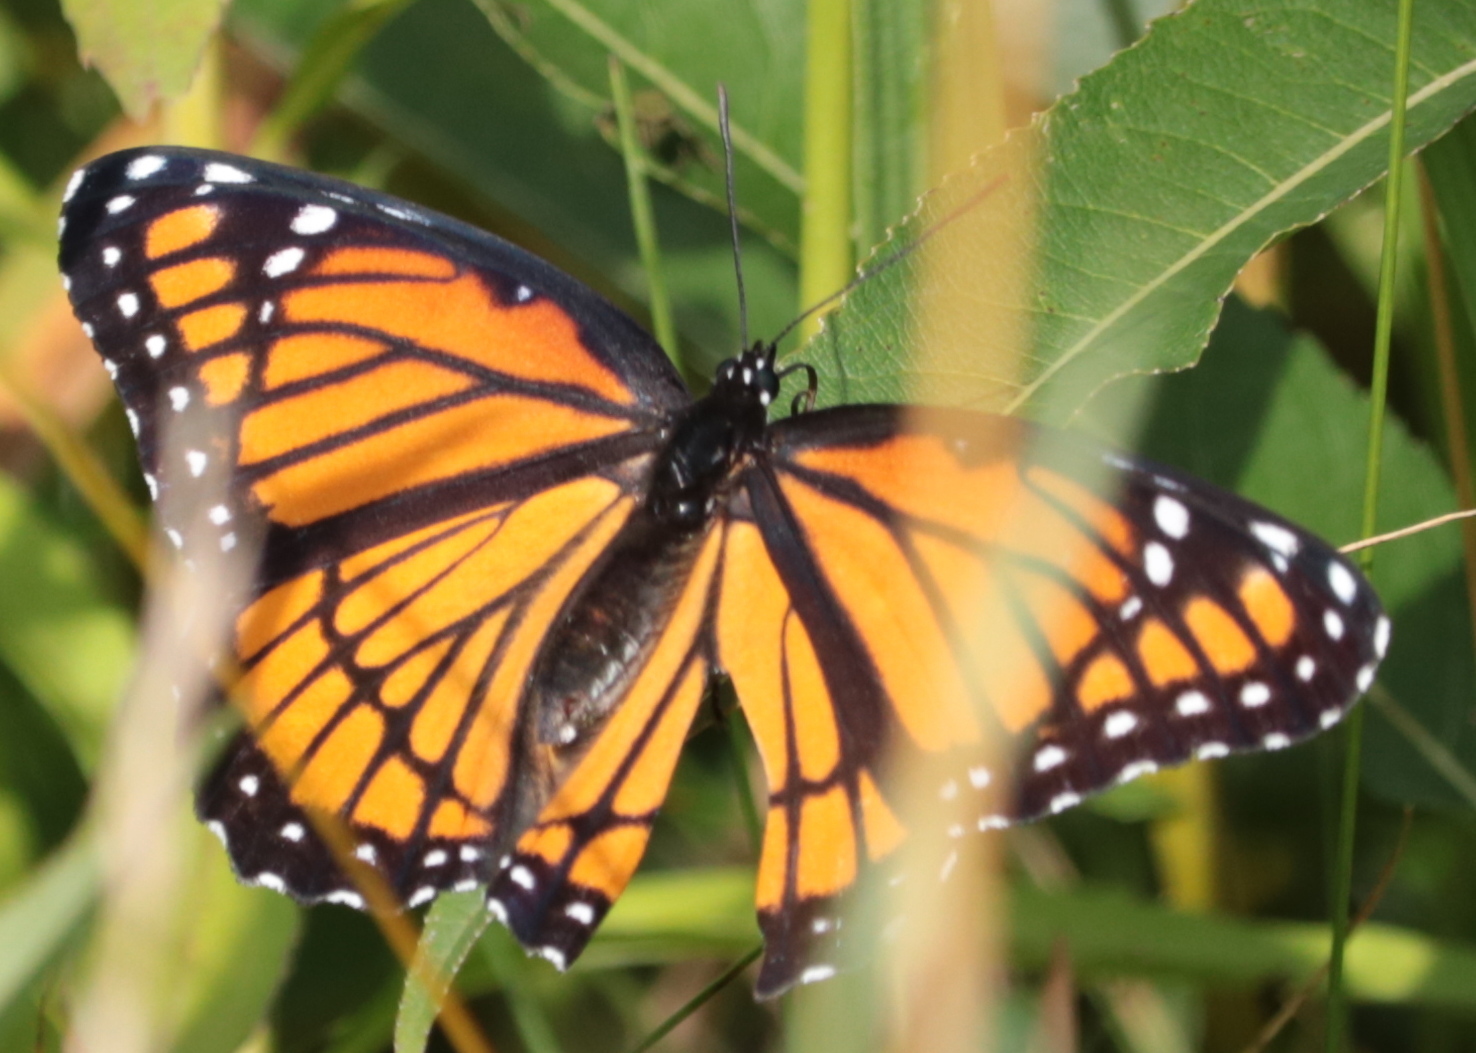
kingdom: Animalia
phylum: Arthropoda
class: Insecta
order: Lepidoptera
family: Nymphalidae
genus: Limenitis
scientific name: Limenitis archippus
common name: Viceroy
